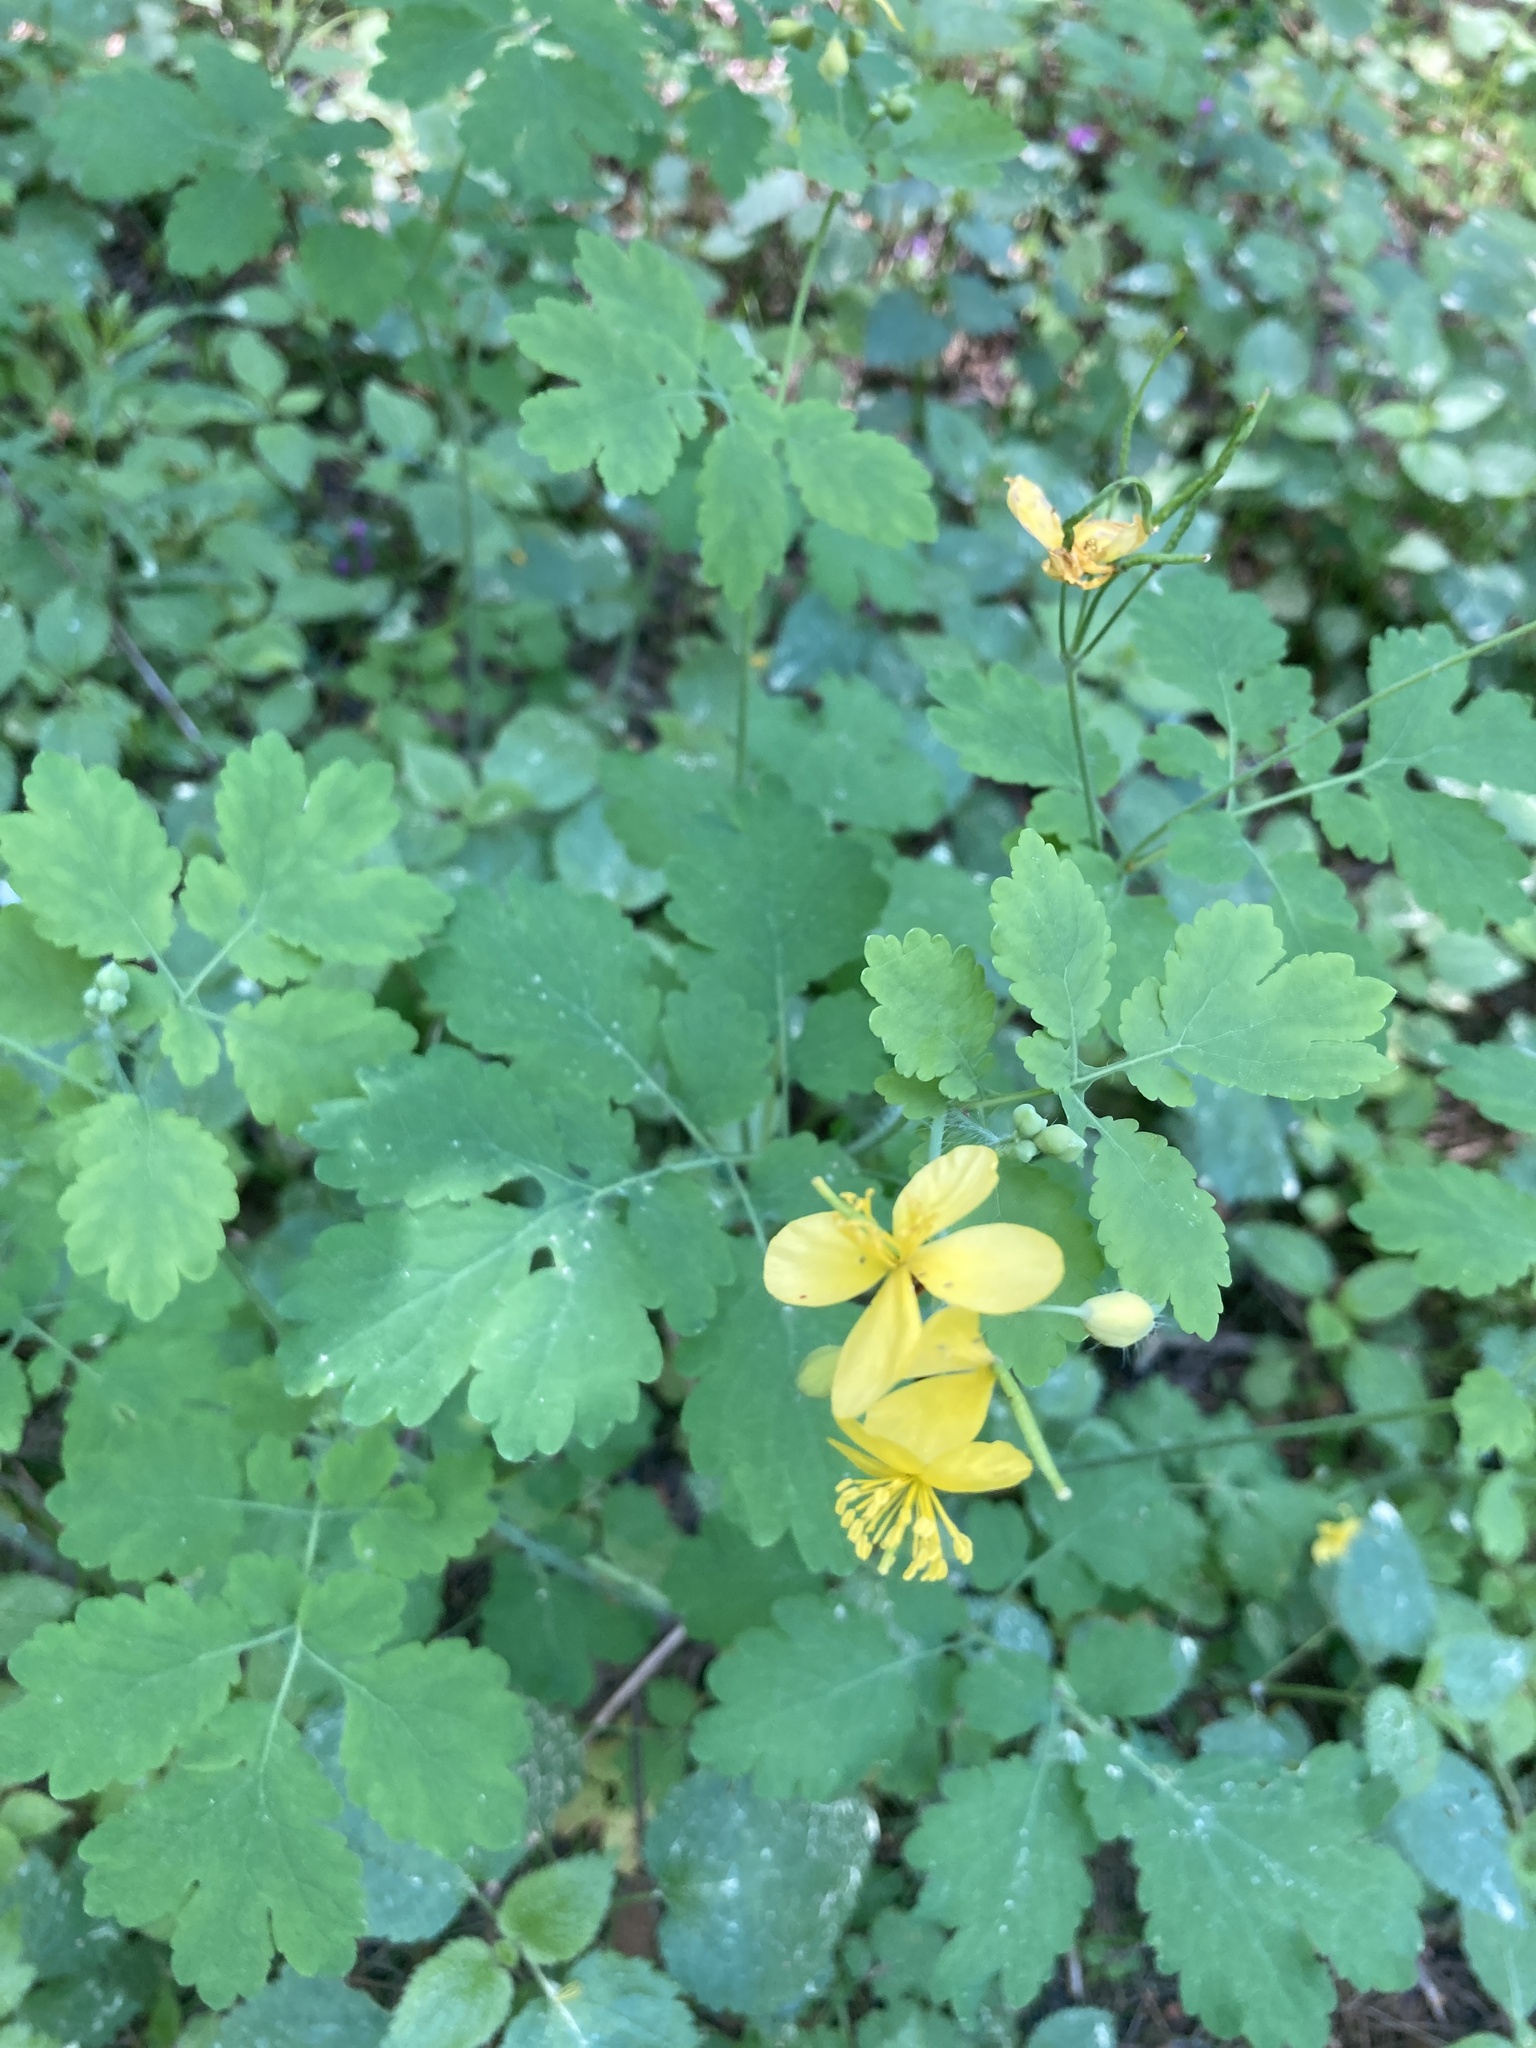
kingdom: Plantae
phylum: Tracheophyta
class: Magnoliopsida
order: Ranunculales
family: Papaveraceae
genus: Chelidonium
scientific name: Chelidonium majus
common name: Greater celandine
